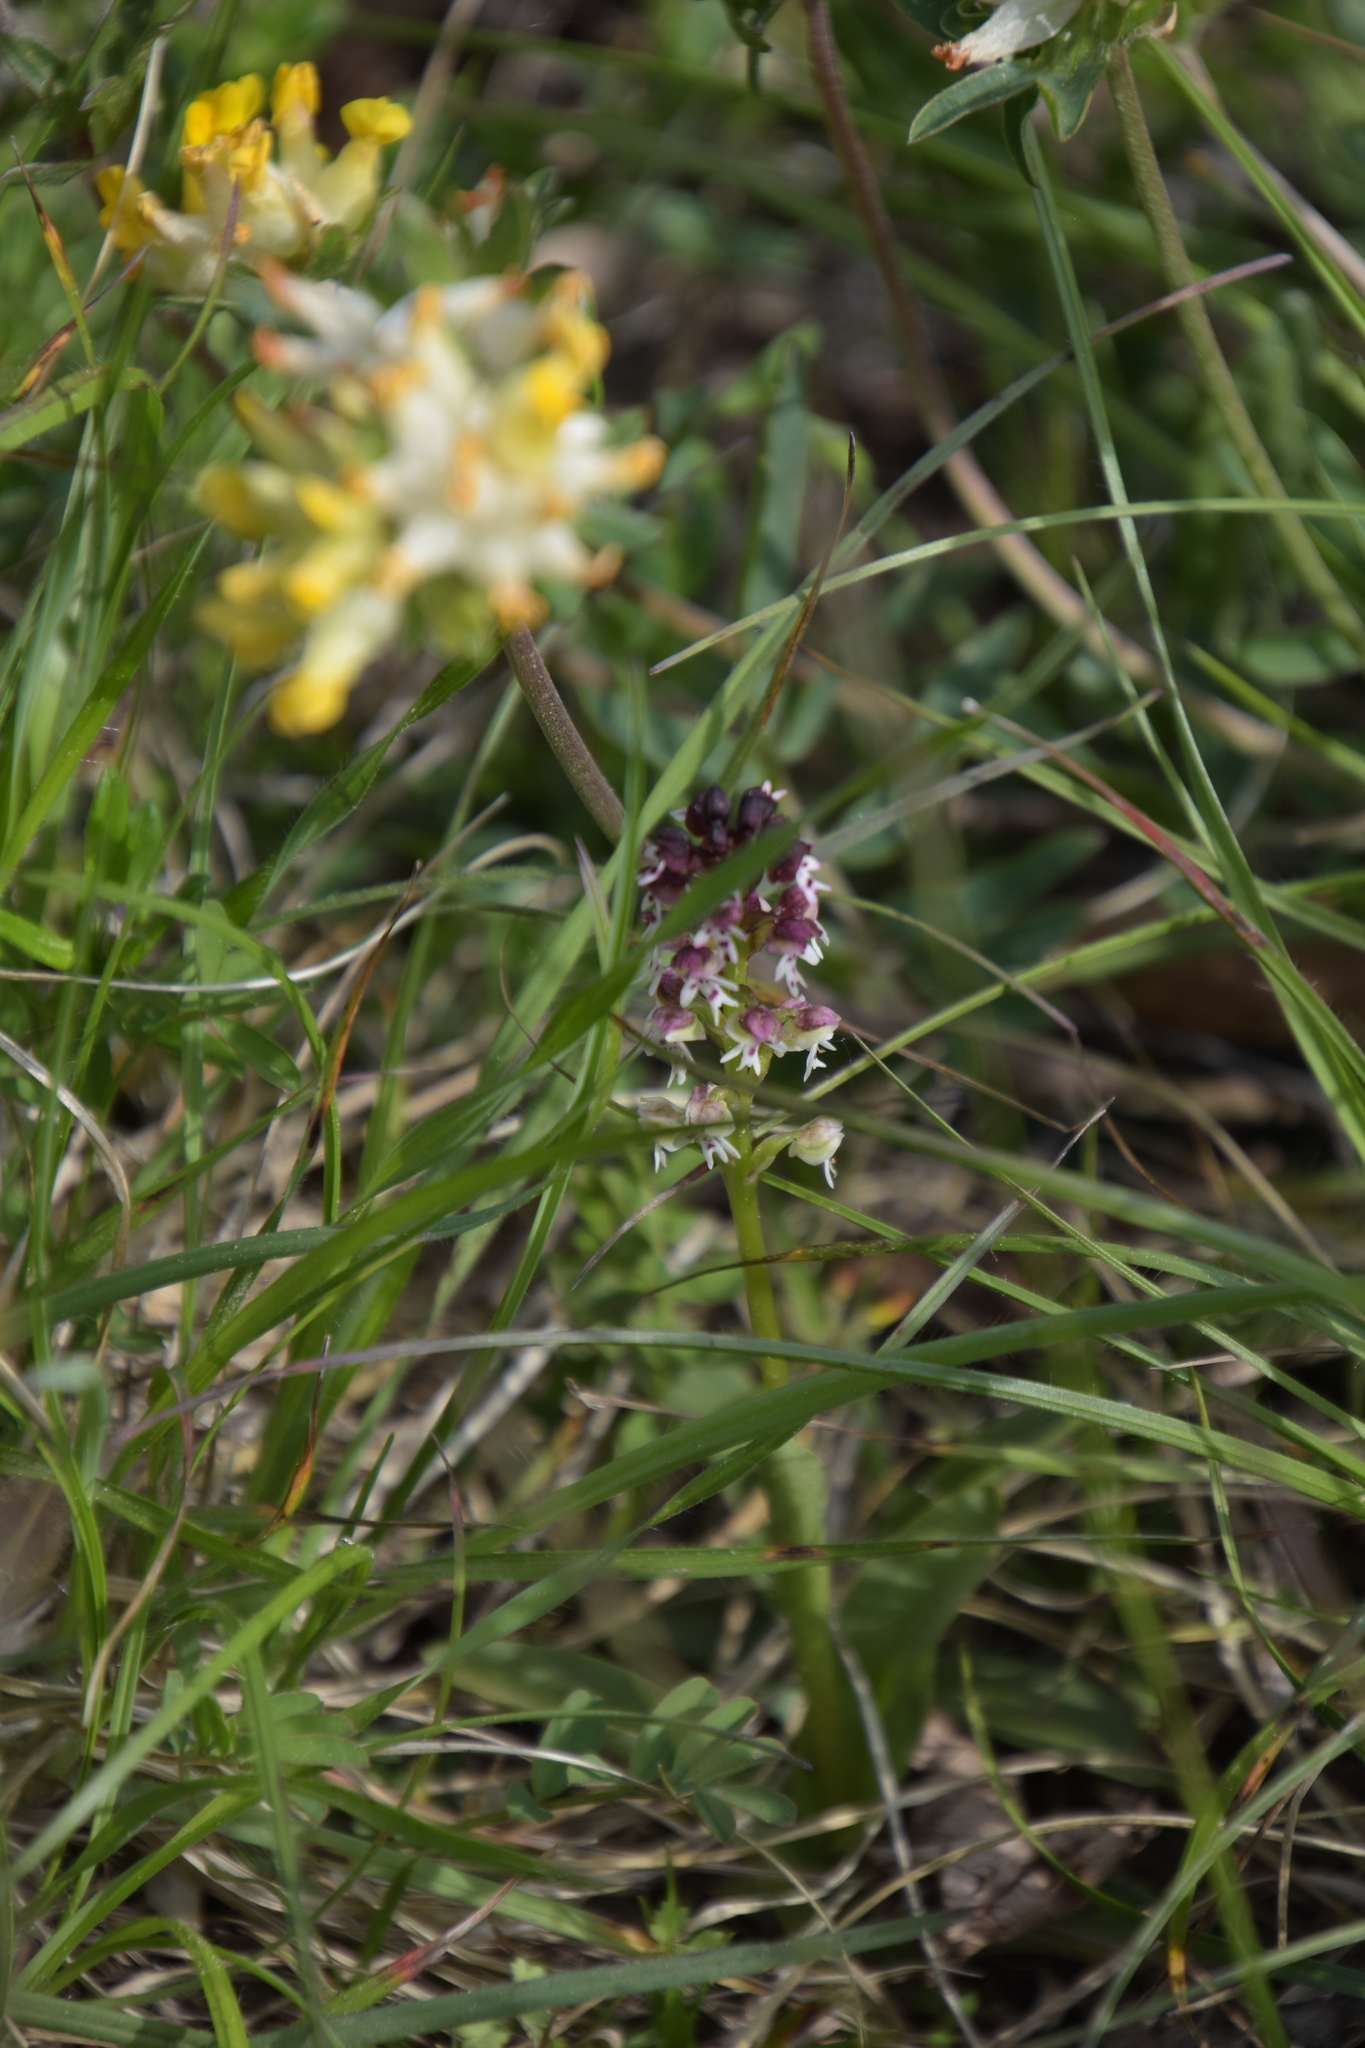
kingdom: Plantae
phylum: Tracheophyta
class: Liliopsida
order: Asparagales
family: Orchidaceae
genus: Neotinea
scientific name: Neotinea ustulata
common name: Burnt orchid
